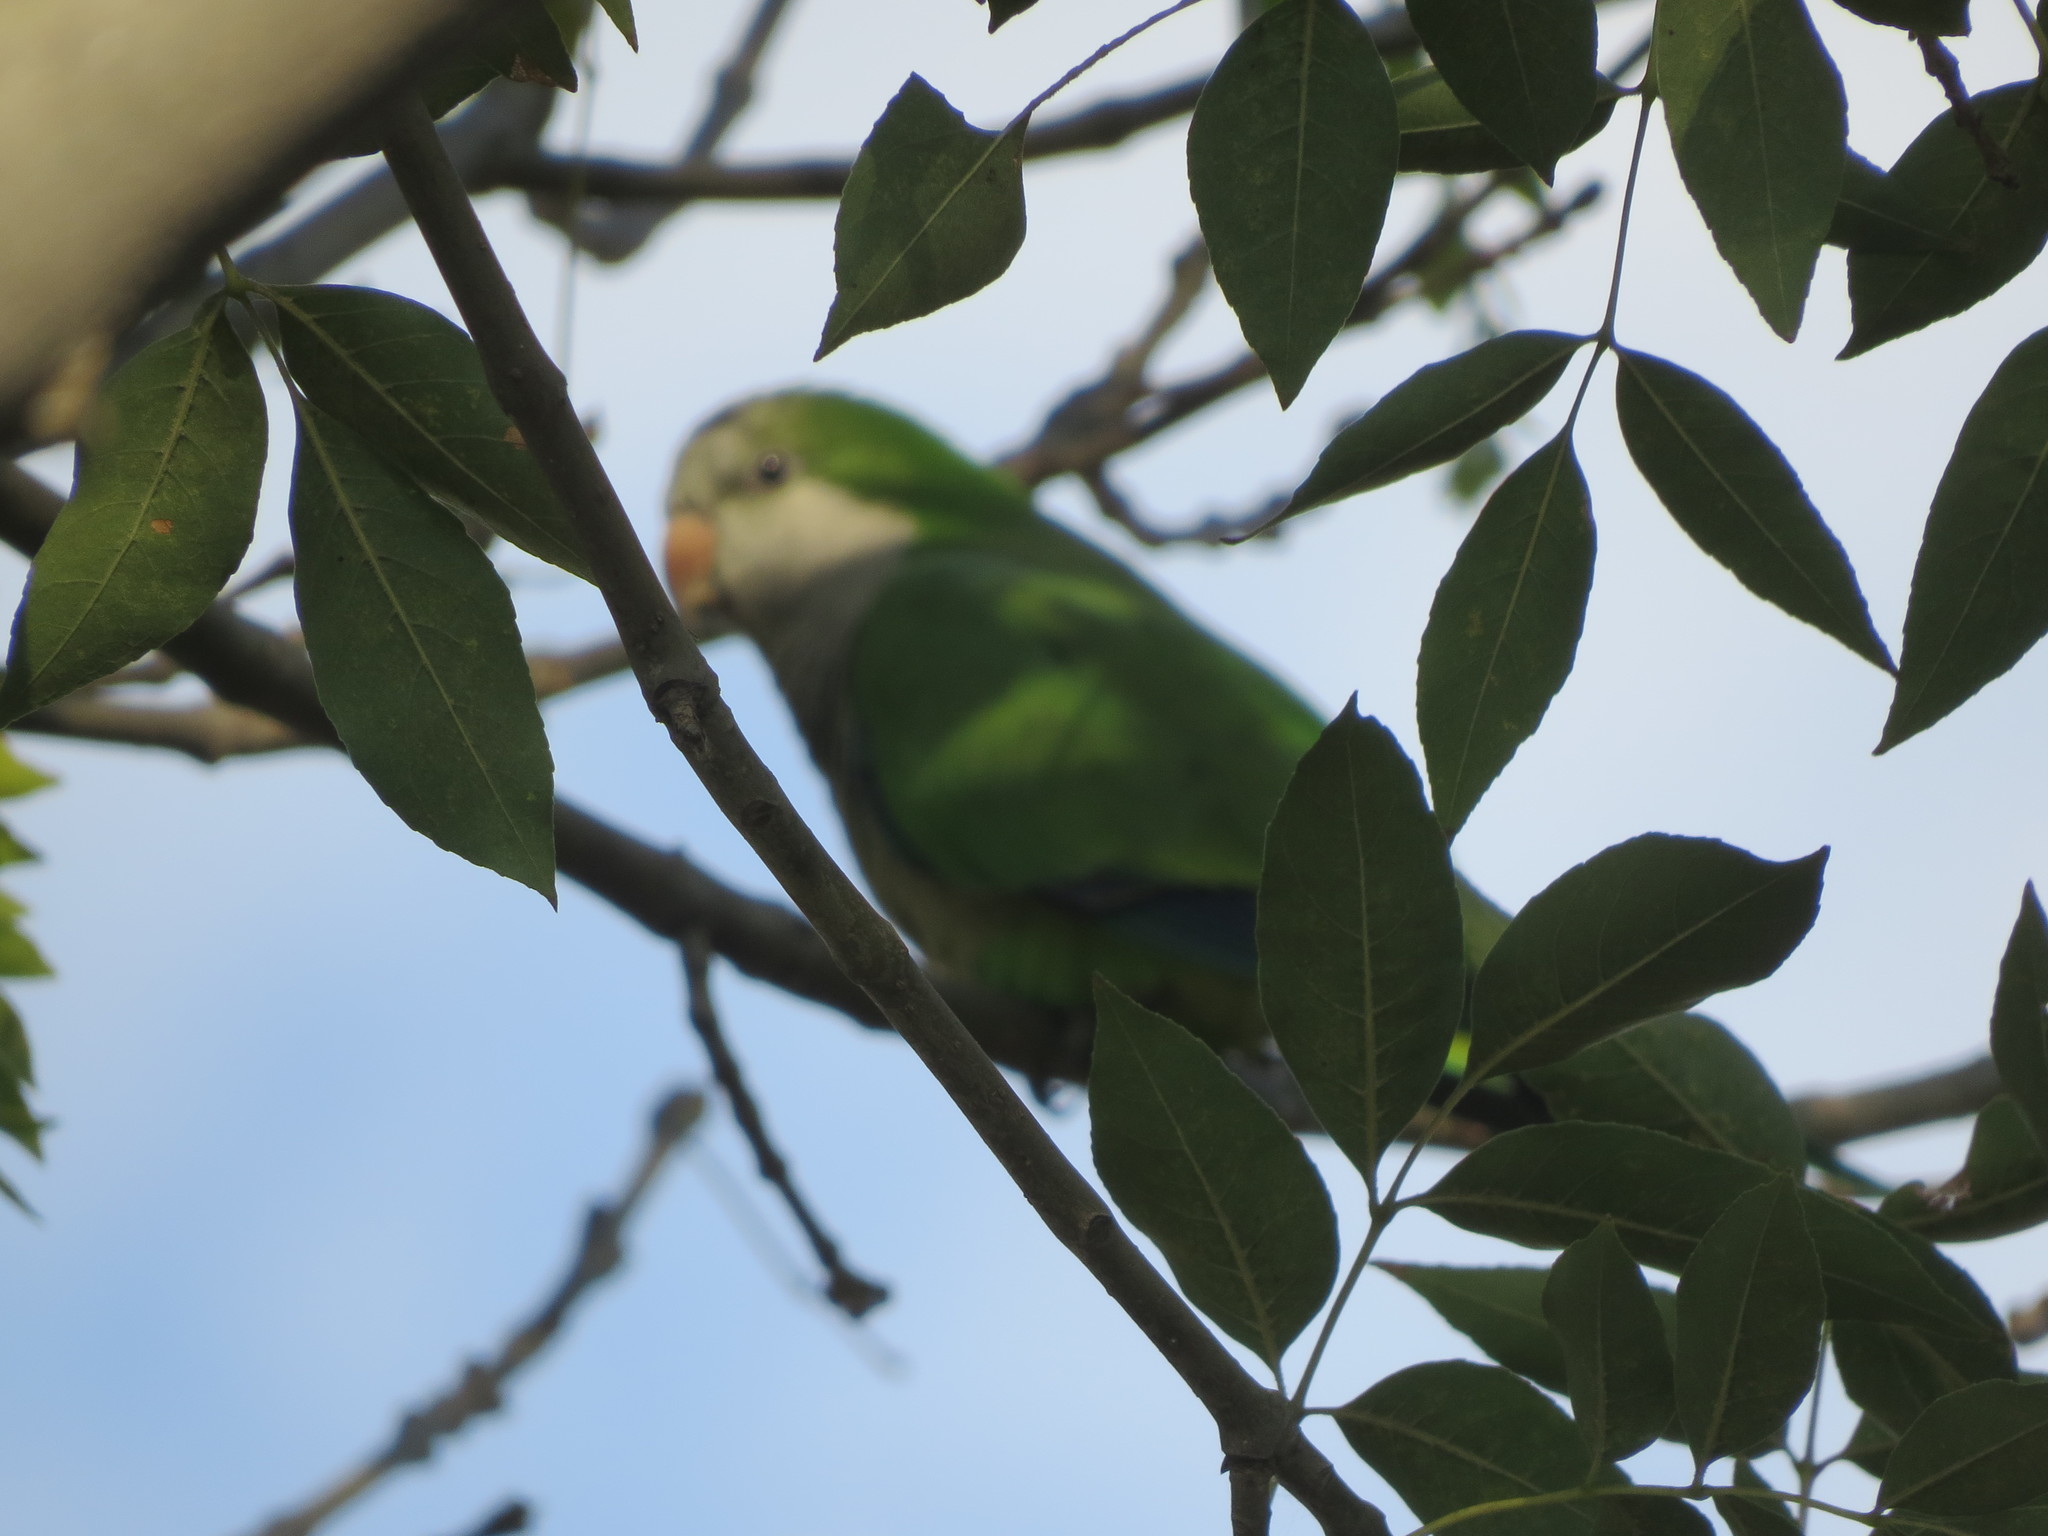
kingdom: Animalia
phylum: Chordata
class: Aves
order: Psittaciformes
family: Psittacidae
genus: Myiopsitta
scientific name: Myiopsitta monachus
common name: Monk parakeet
